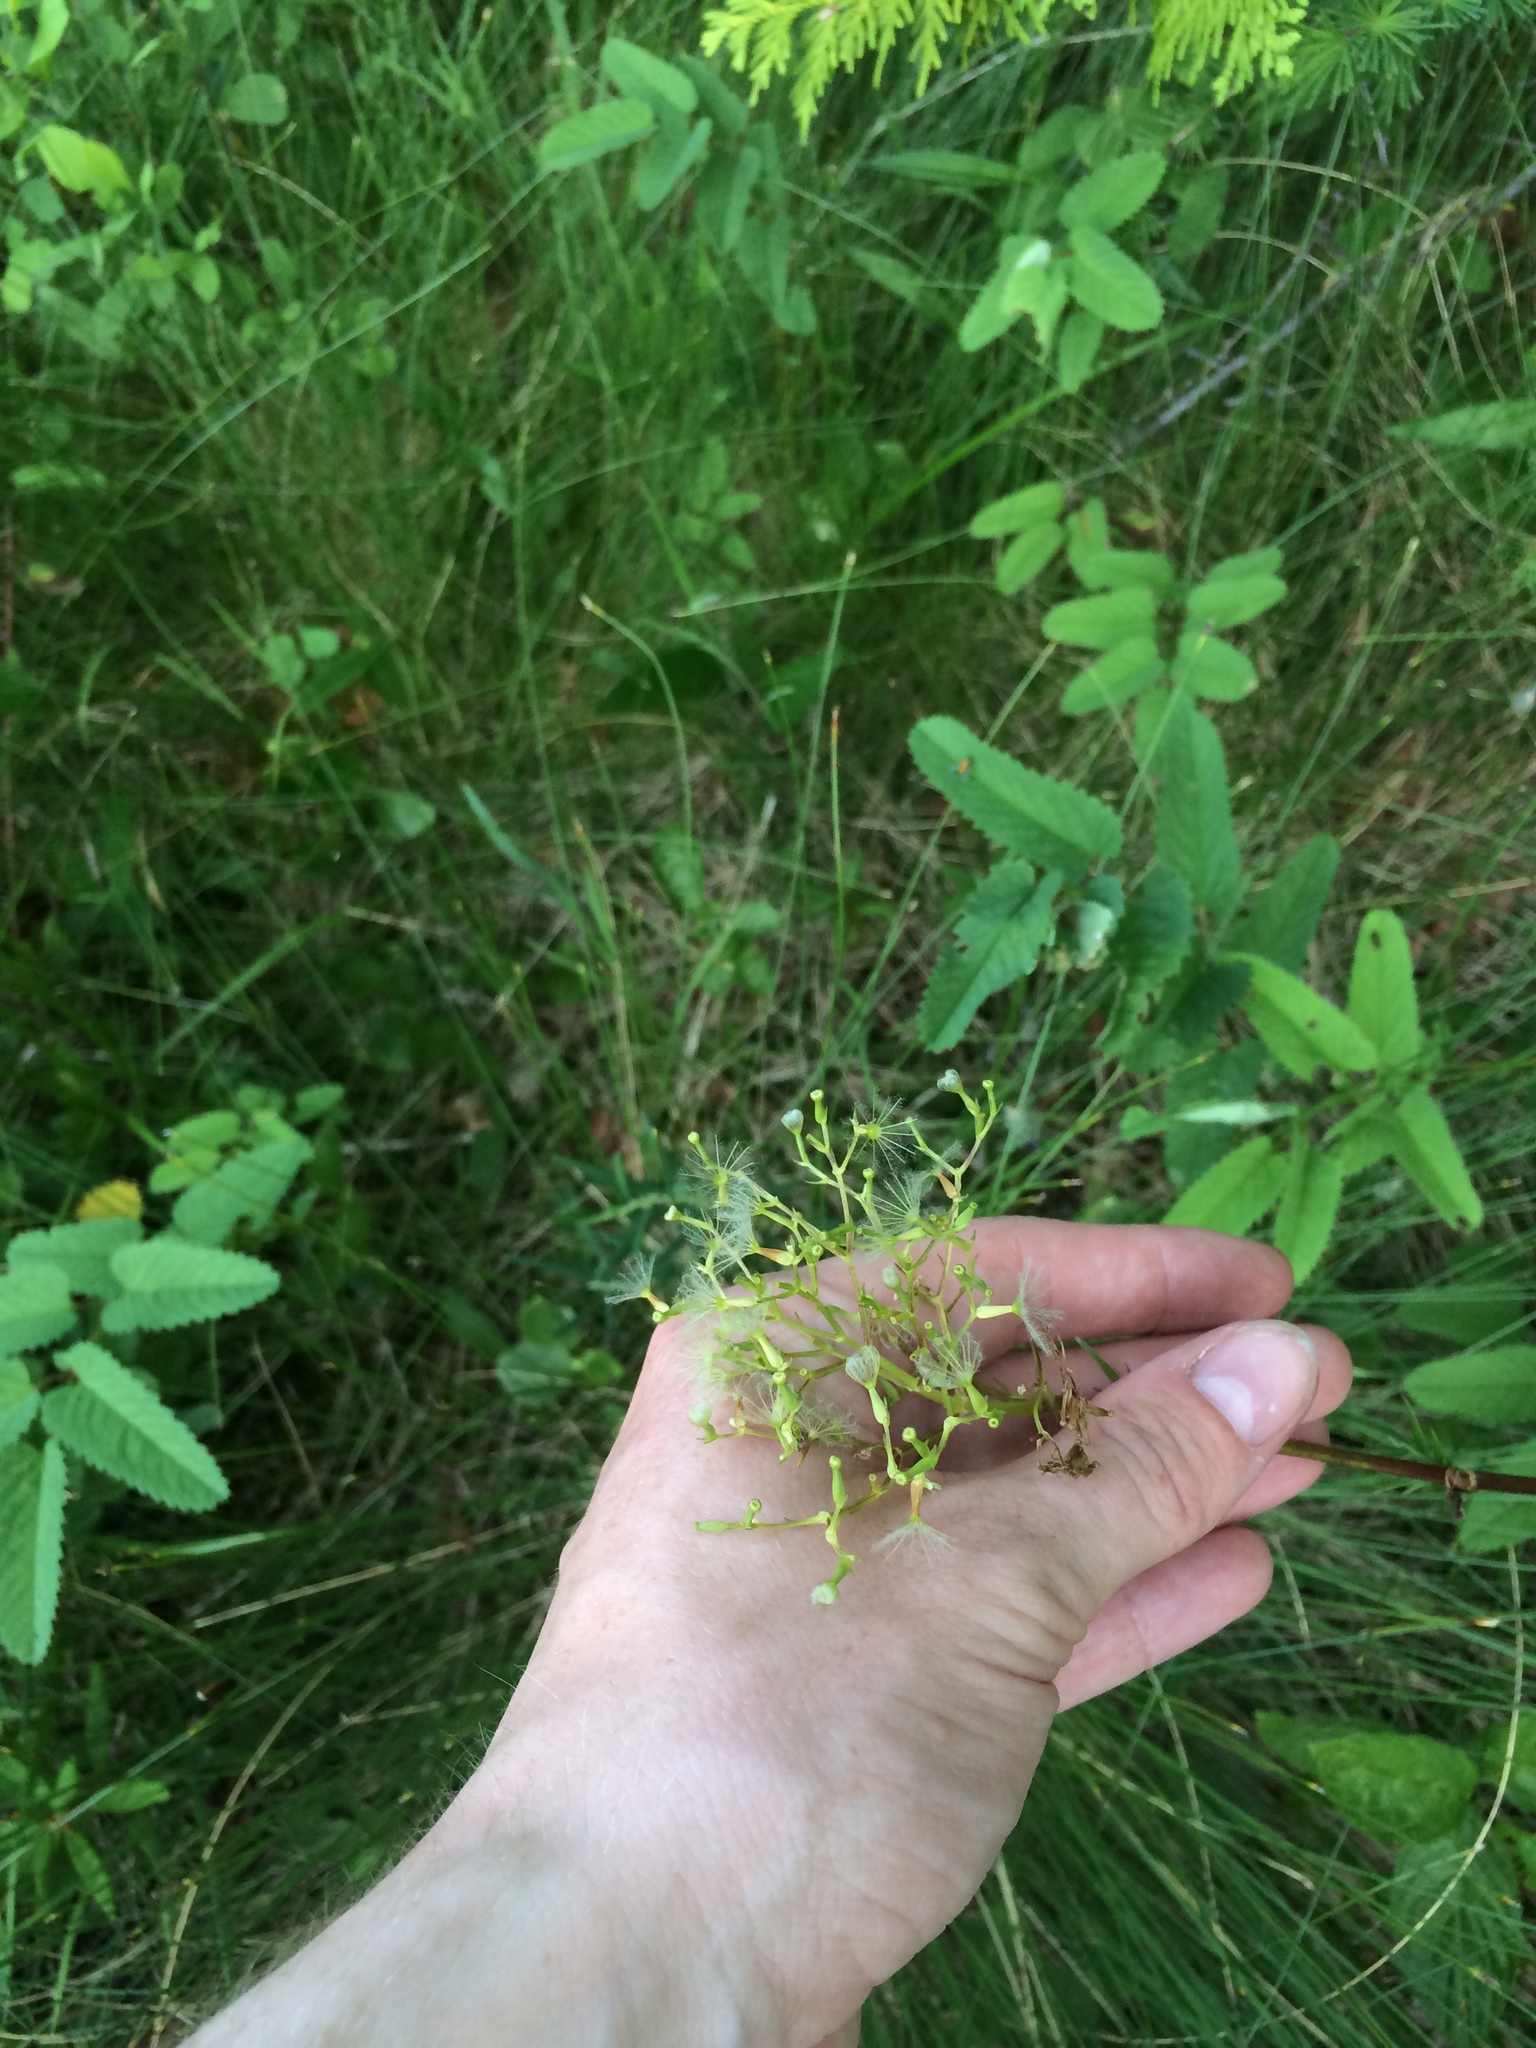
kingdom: Plantae
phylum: Tracheophyta
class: Magnoliopsida
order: Dipsacales
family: Caprifoliaceae
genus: Valeriana
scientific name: Valeriana uliginosa
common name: Marsh valerian
